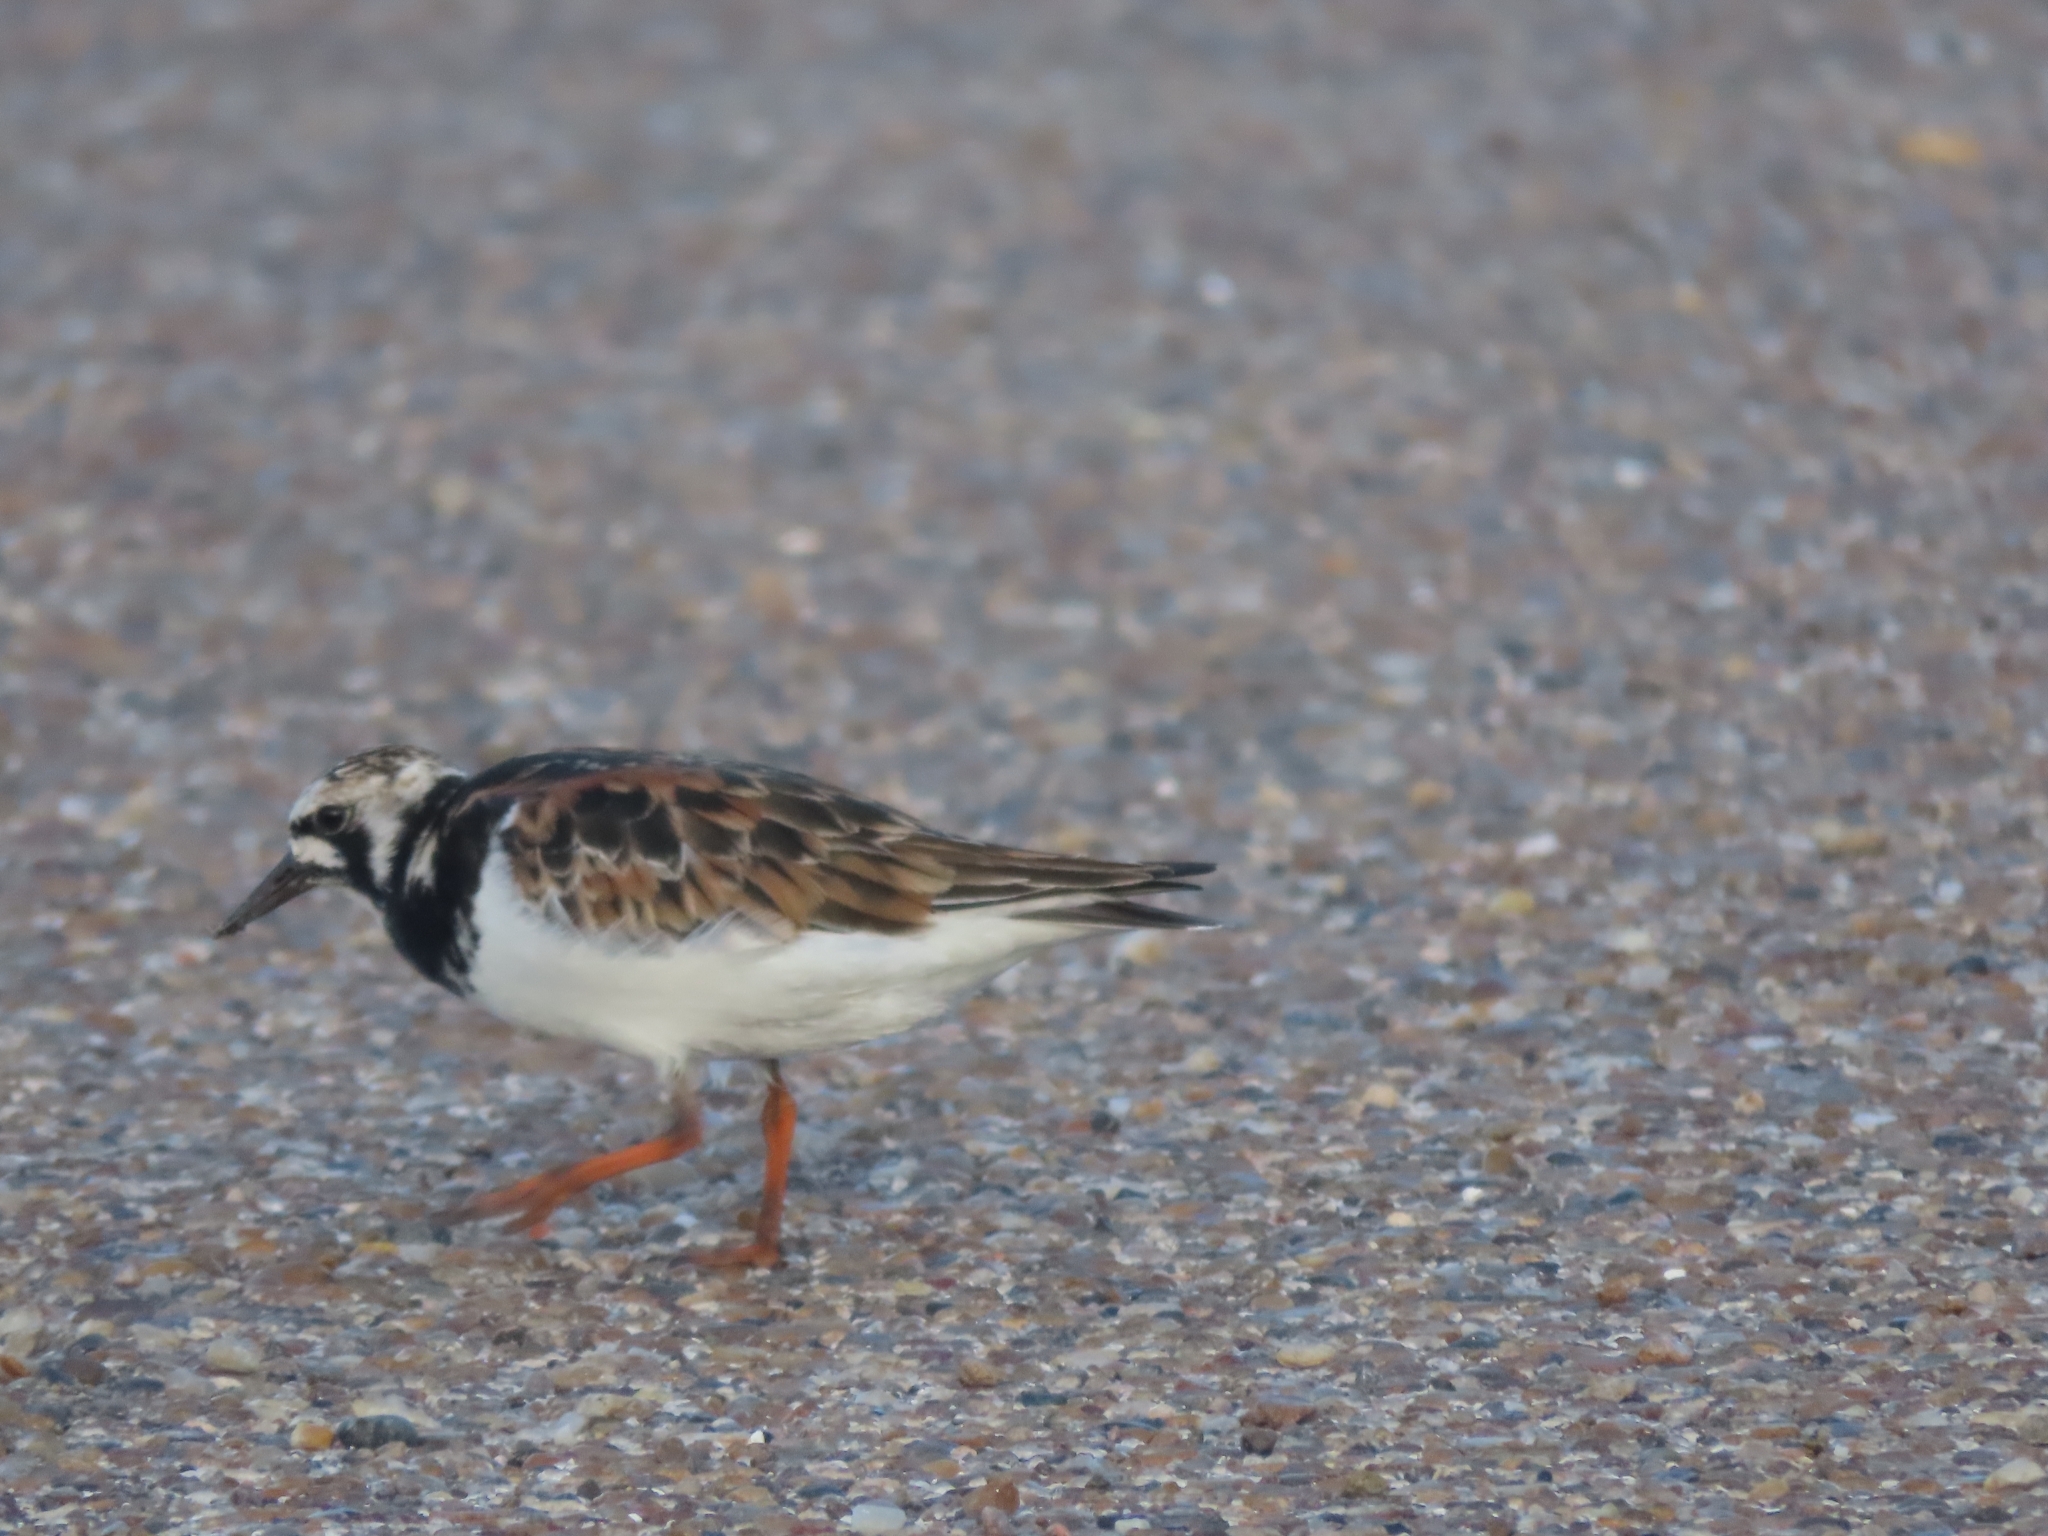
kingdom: Animalia
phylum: Chordata
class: Aves
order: Charadriiformes
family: Scolopacidae
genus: Arenaria
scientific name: Arenaria interpres
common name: Ruddy turnstone
